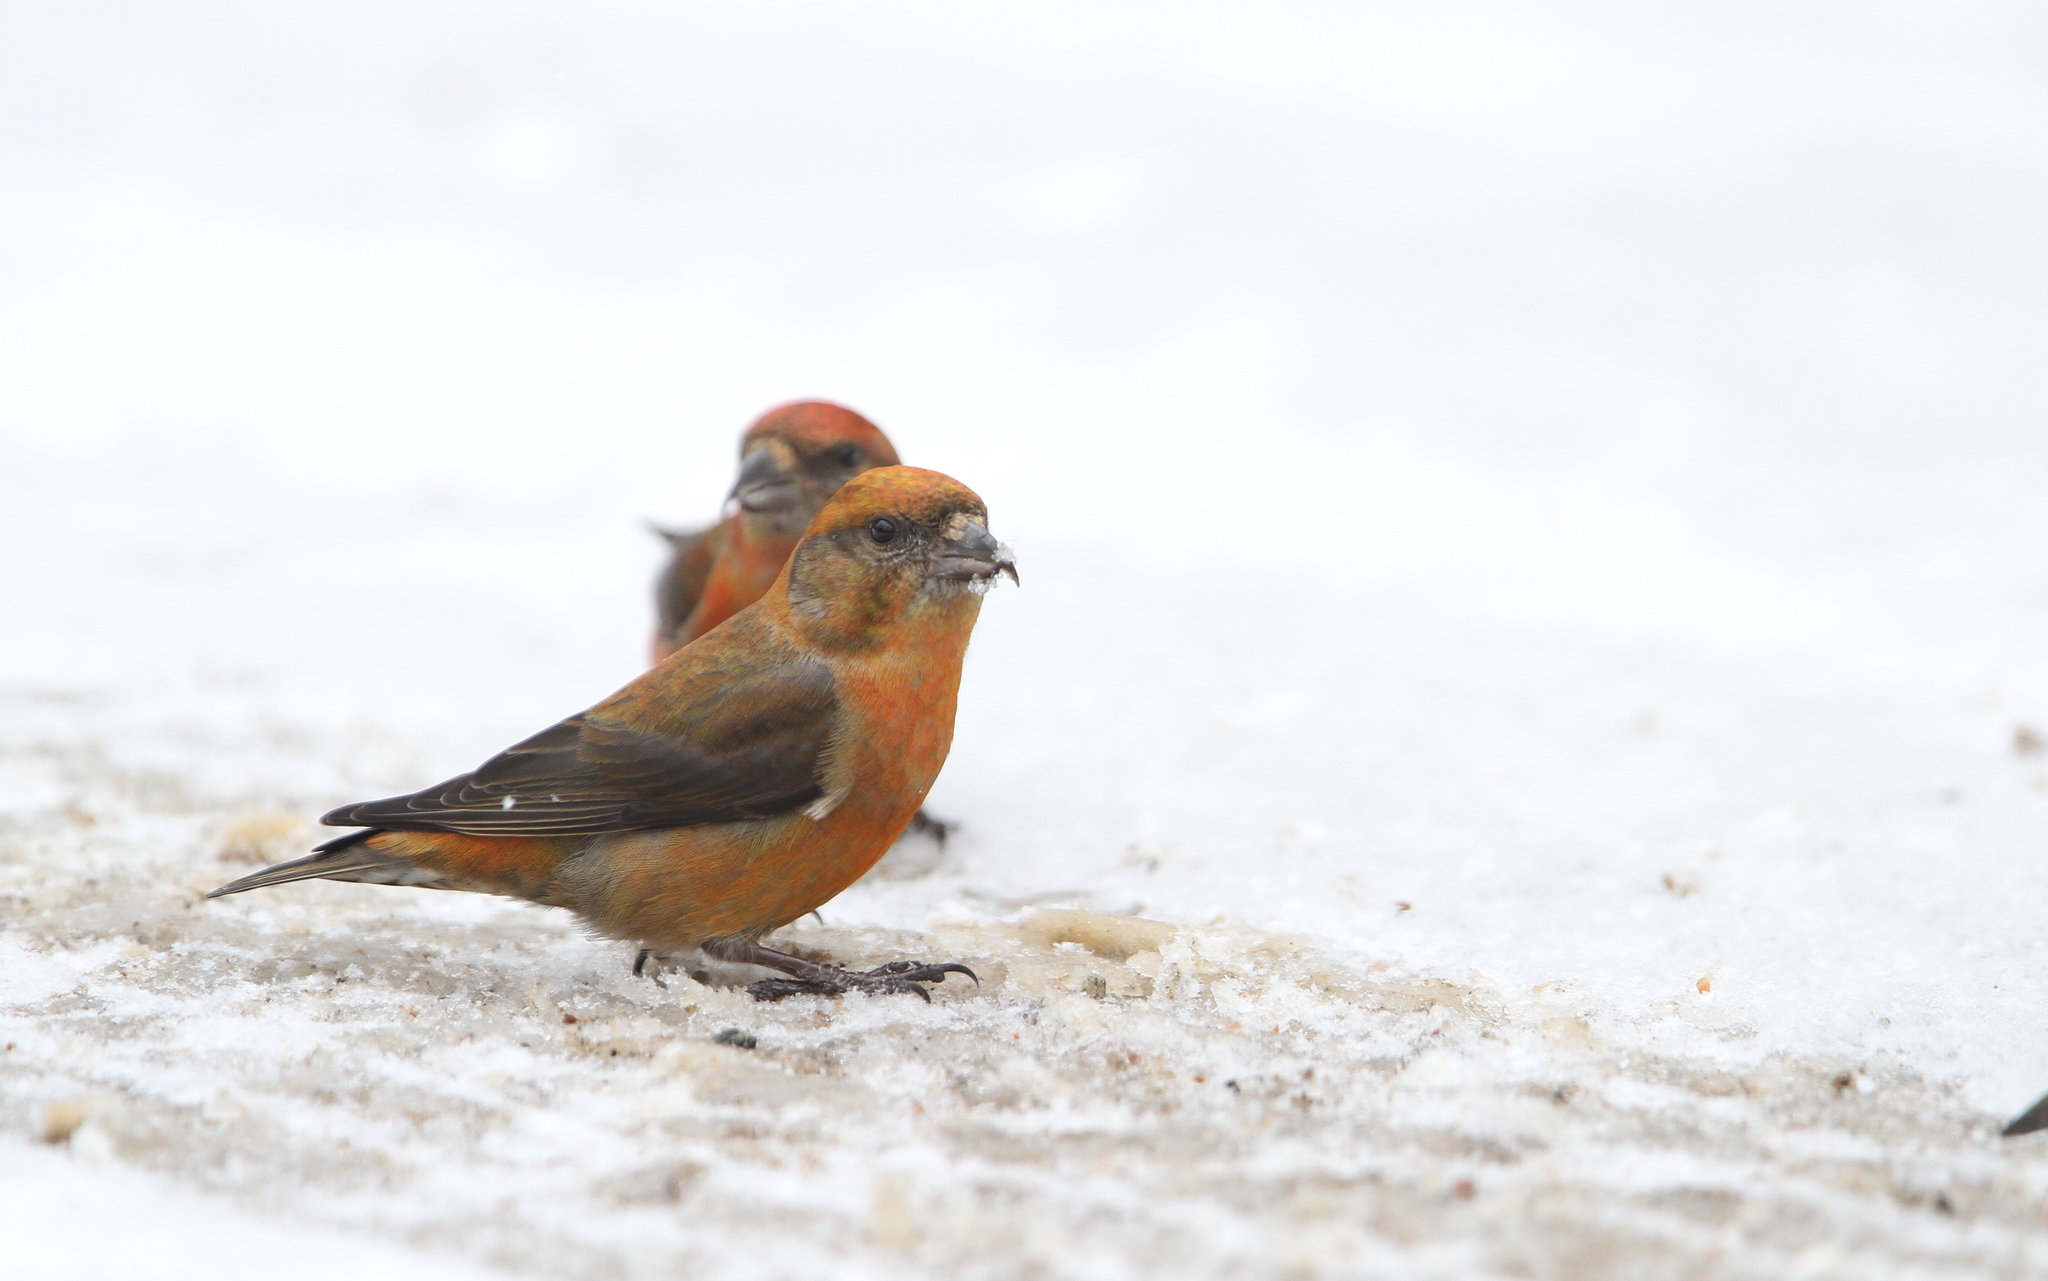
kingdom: Animalia
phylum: Chordata
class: Aves
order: Passeriformes
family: Fringillidae
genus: Loxia
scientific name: Loxia curvirostra
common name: Red crossbill
